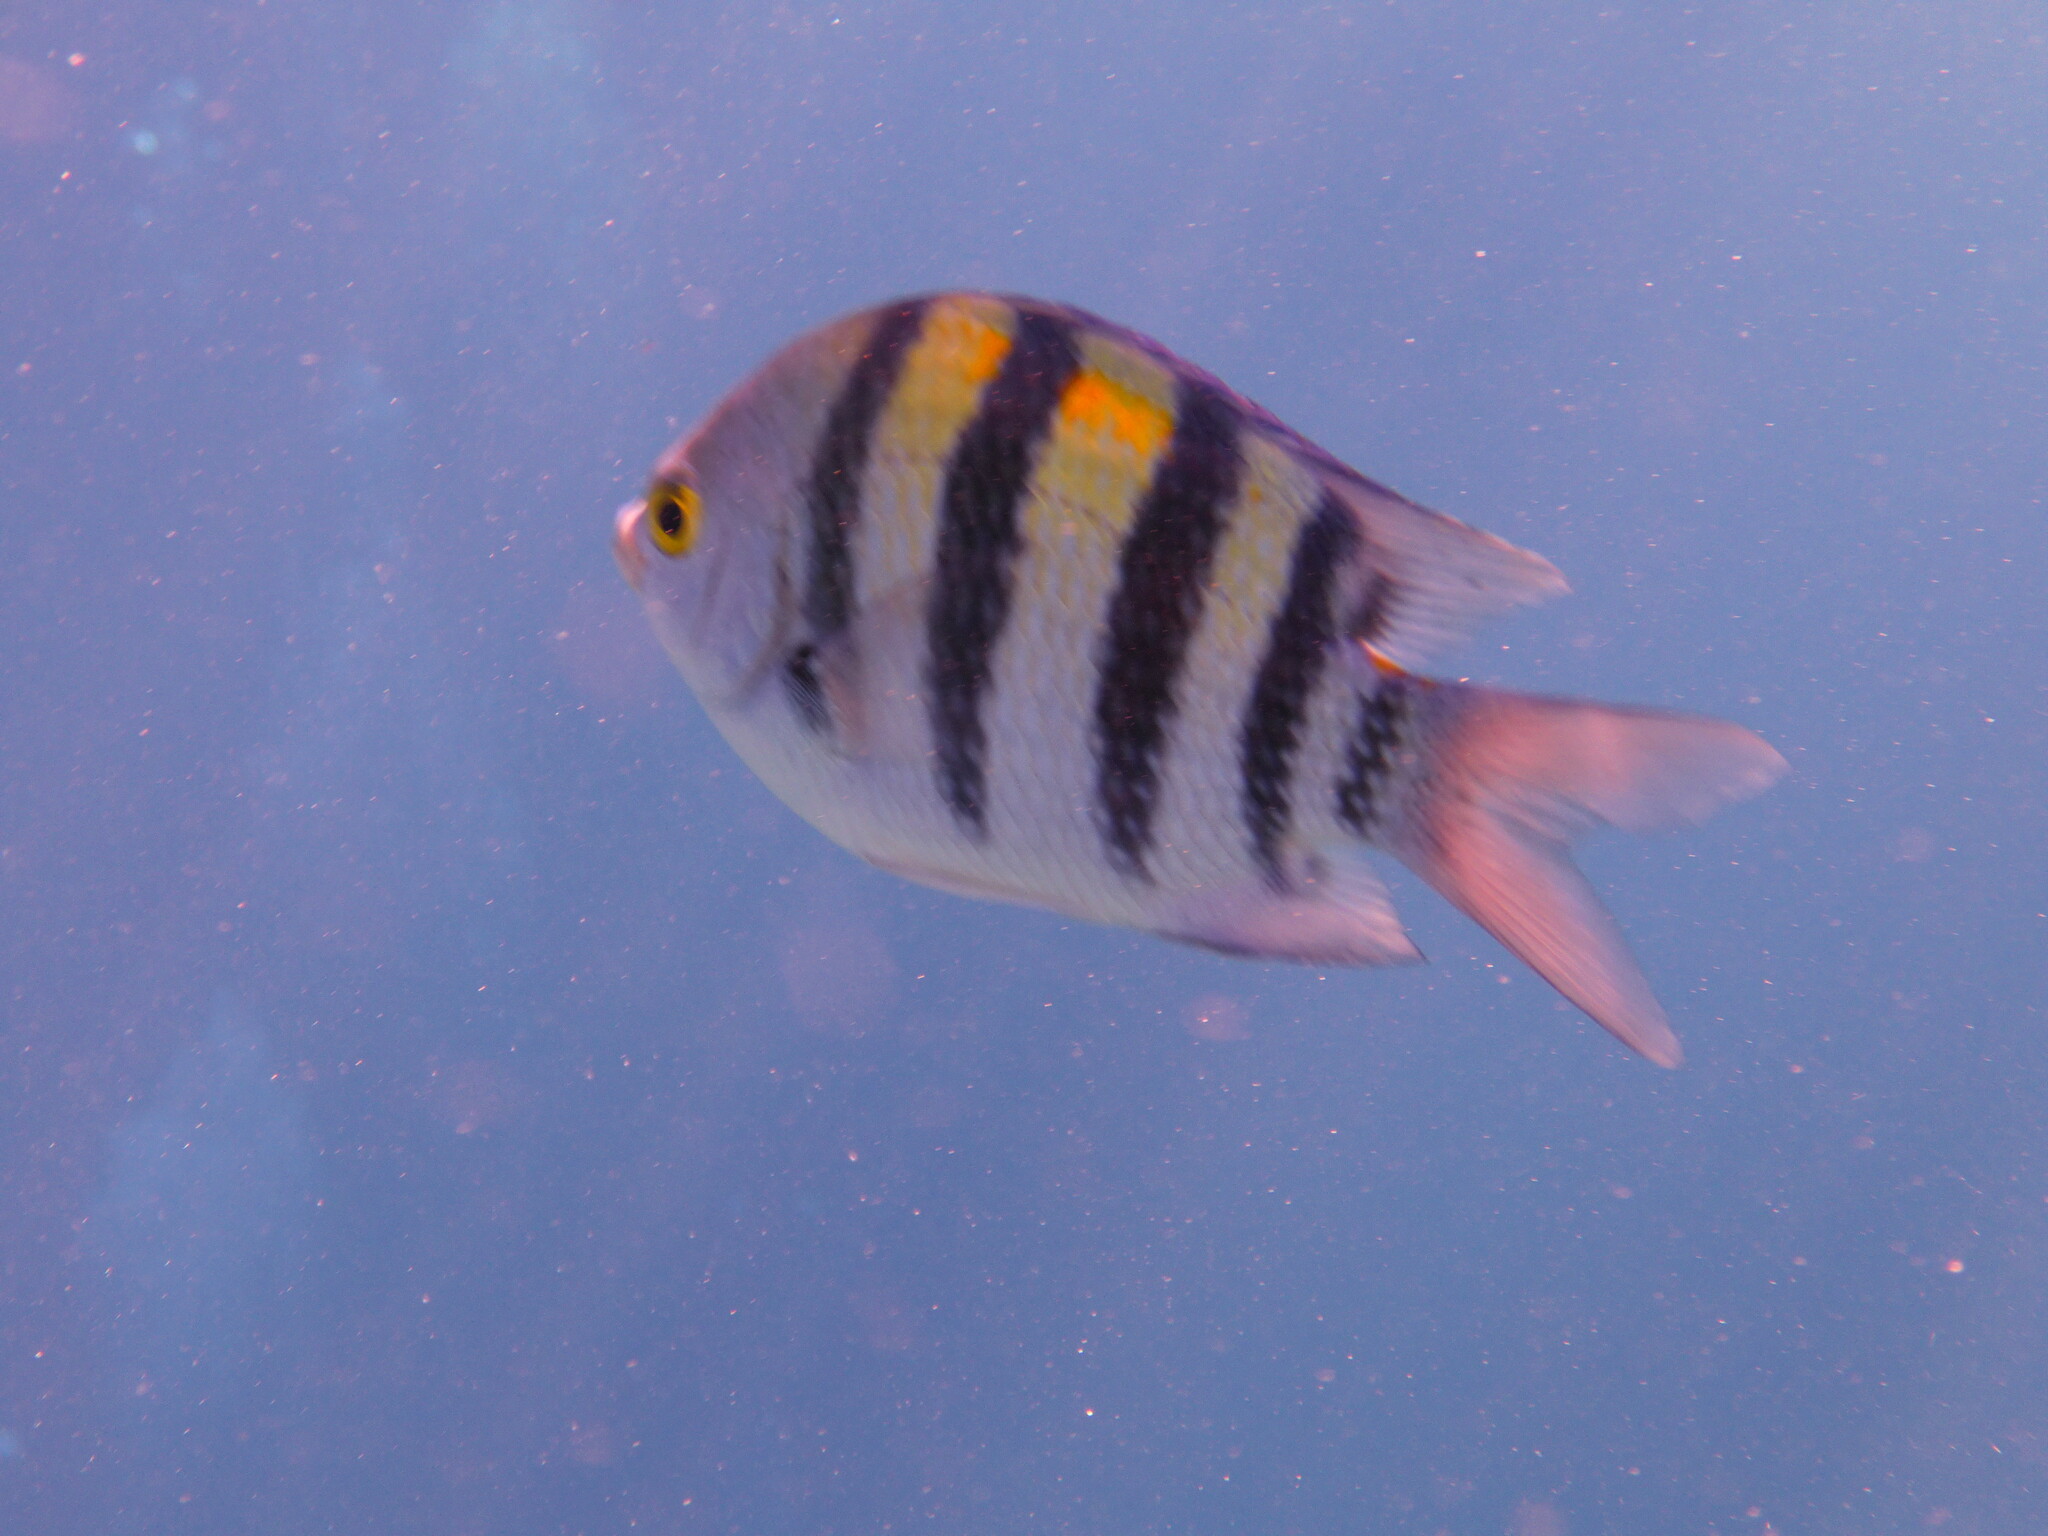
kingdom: Animalia
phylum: Chordata
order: Perciformes
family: Pomacentridae
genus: Abudefduf
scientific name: Abudefduf vaigiensis
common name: Indo-pacific sergeant
